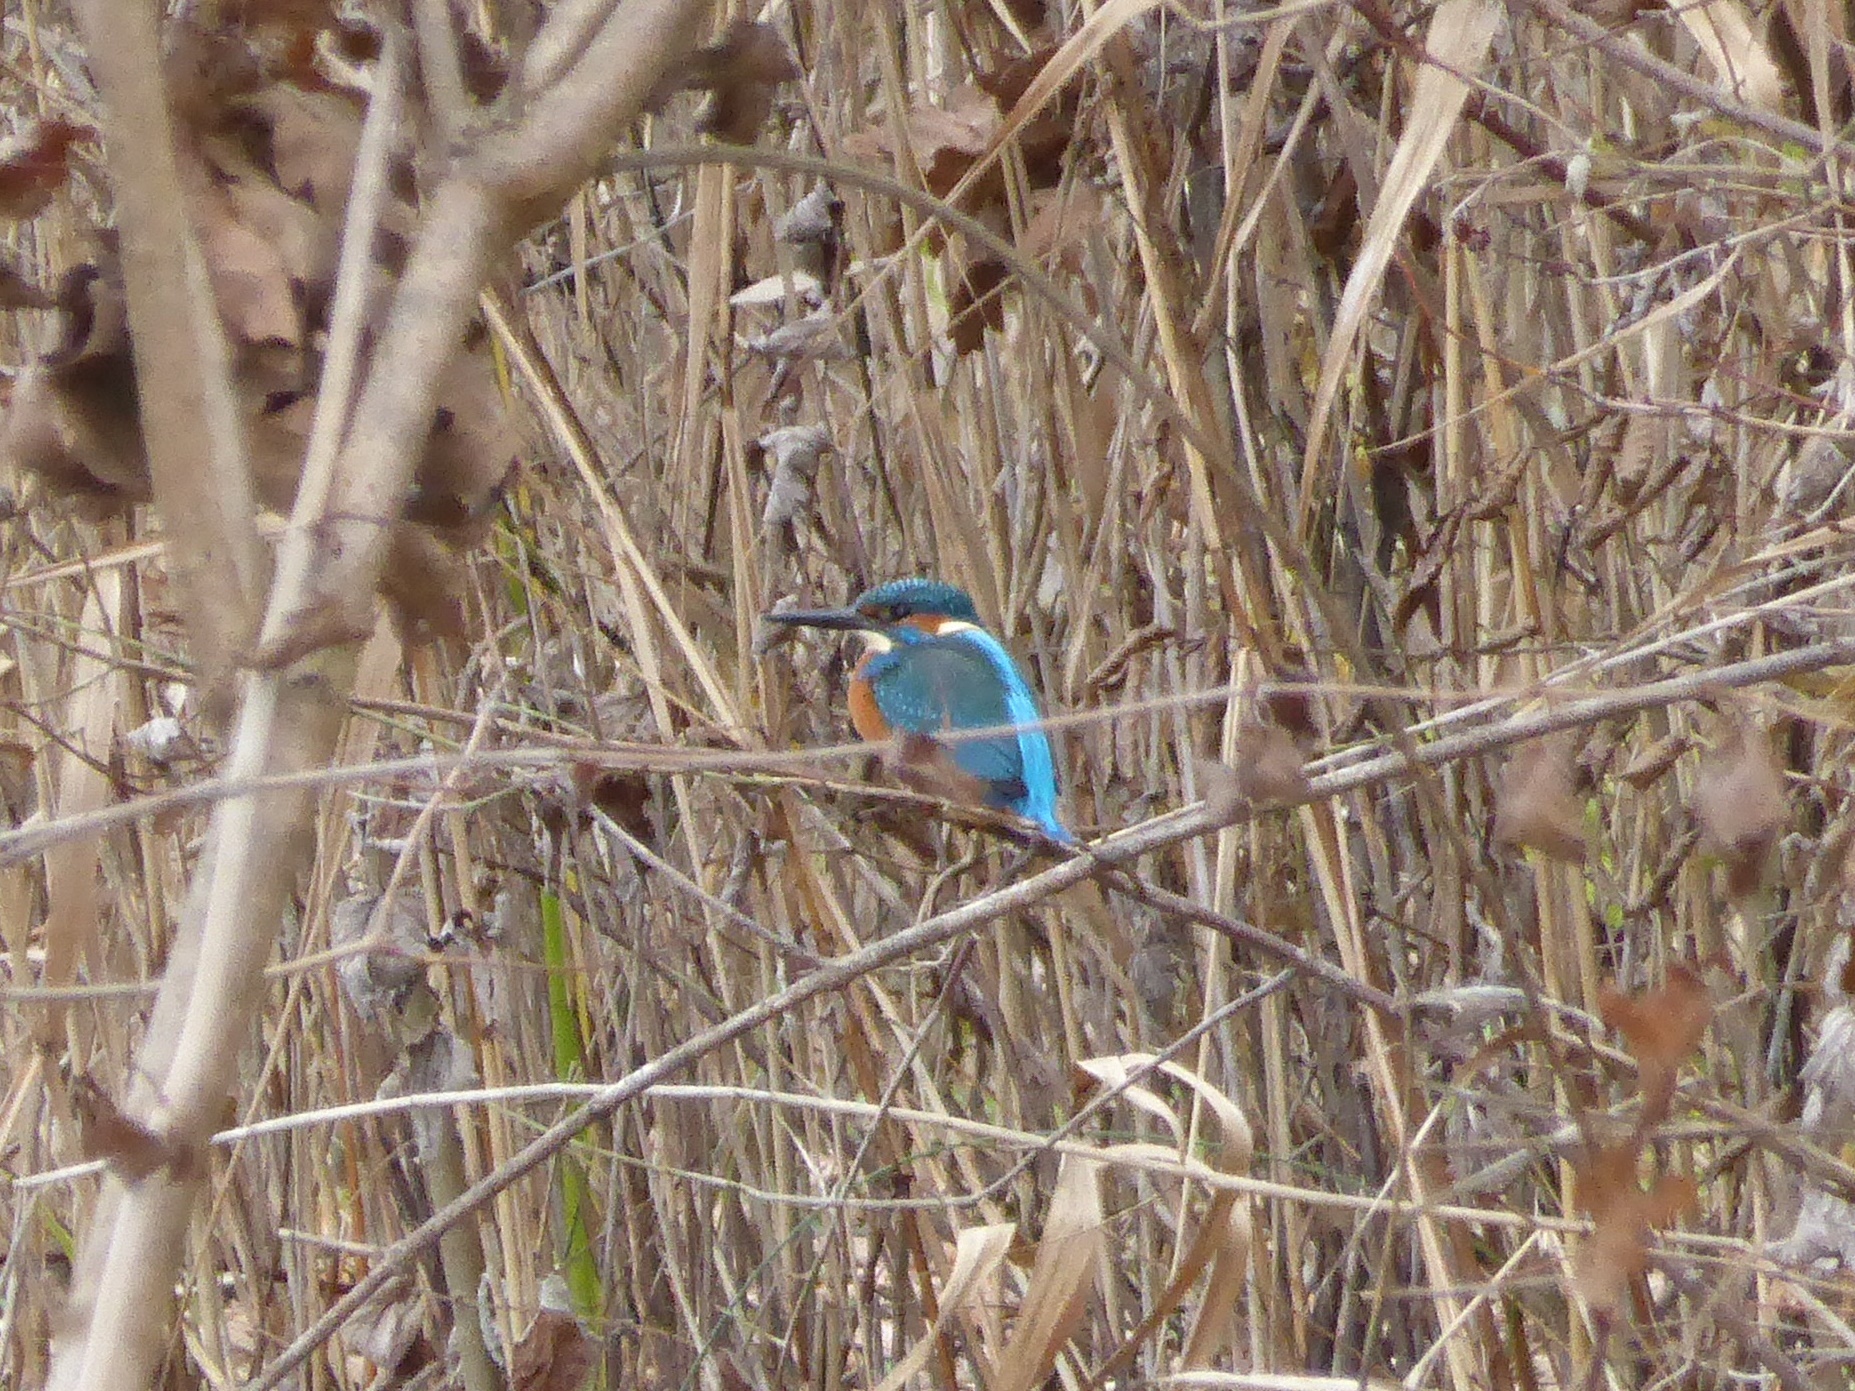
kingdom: Animalia
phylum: Chordata
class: Aves
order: Coraciiformes
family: Alcedinidae
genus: Alcedo
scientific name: Alcedo atthis
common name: Common kingfisher
